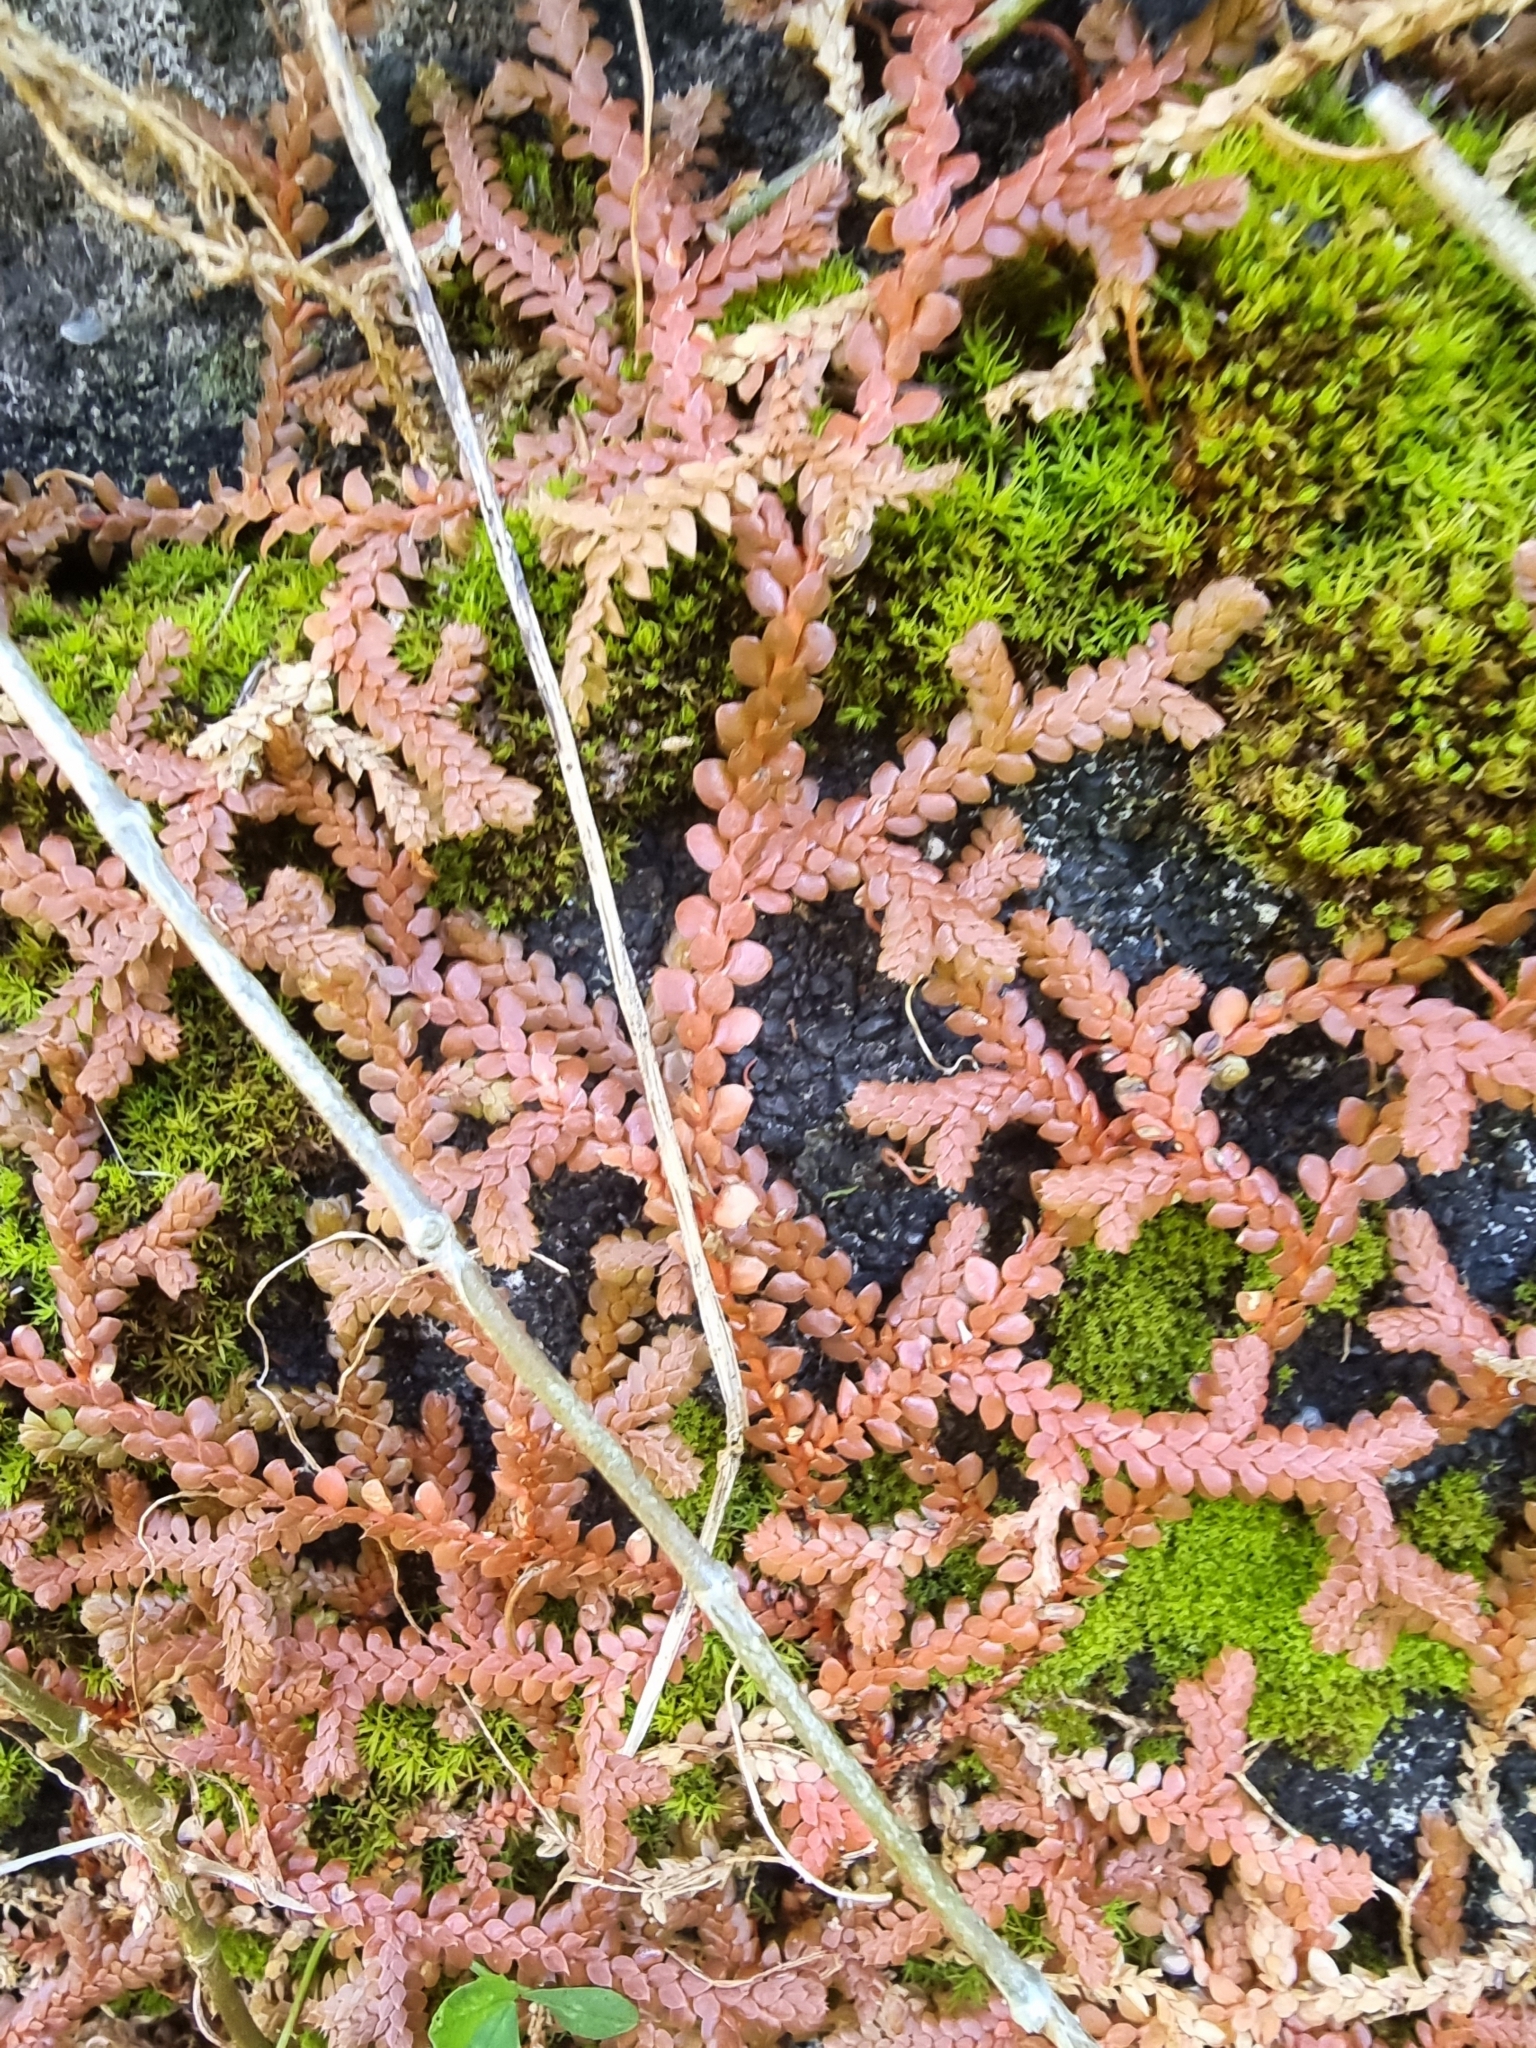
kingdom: Plantae
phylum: Tracheophyta
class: Lycopodiopsida
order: Selaginellales
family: Selaginellaceae
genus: Selaginella
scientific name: Selaginella denticulata
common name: Toothed-leaved clubmoss
